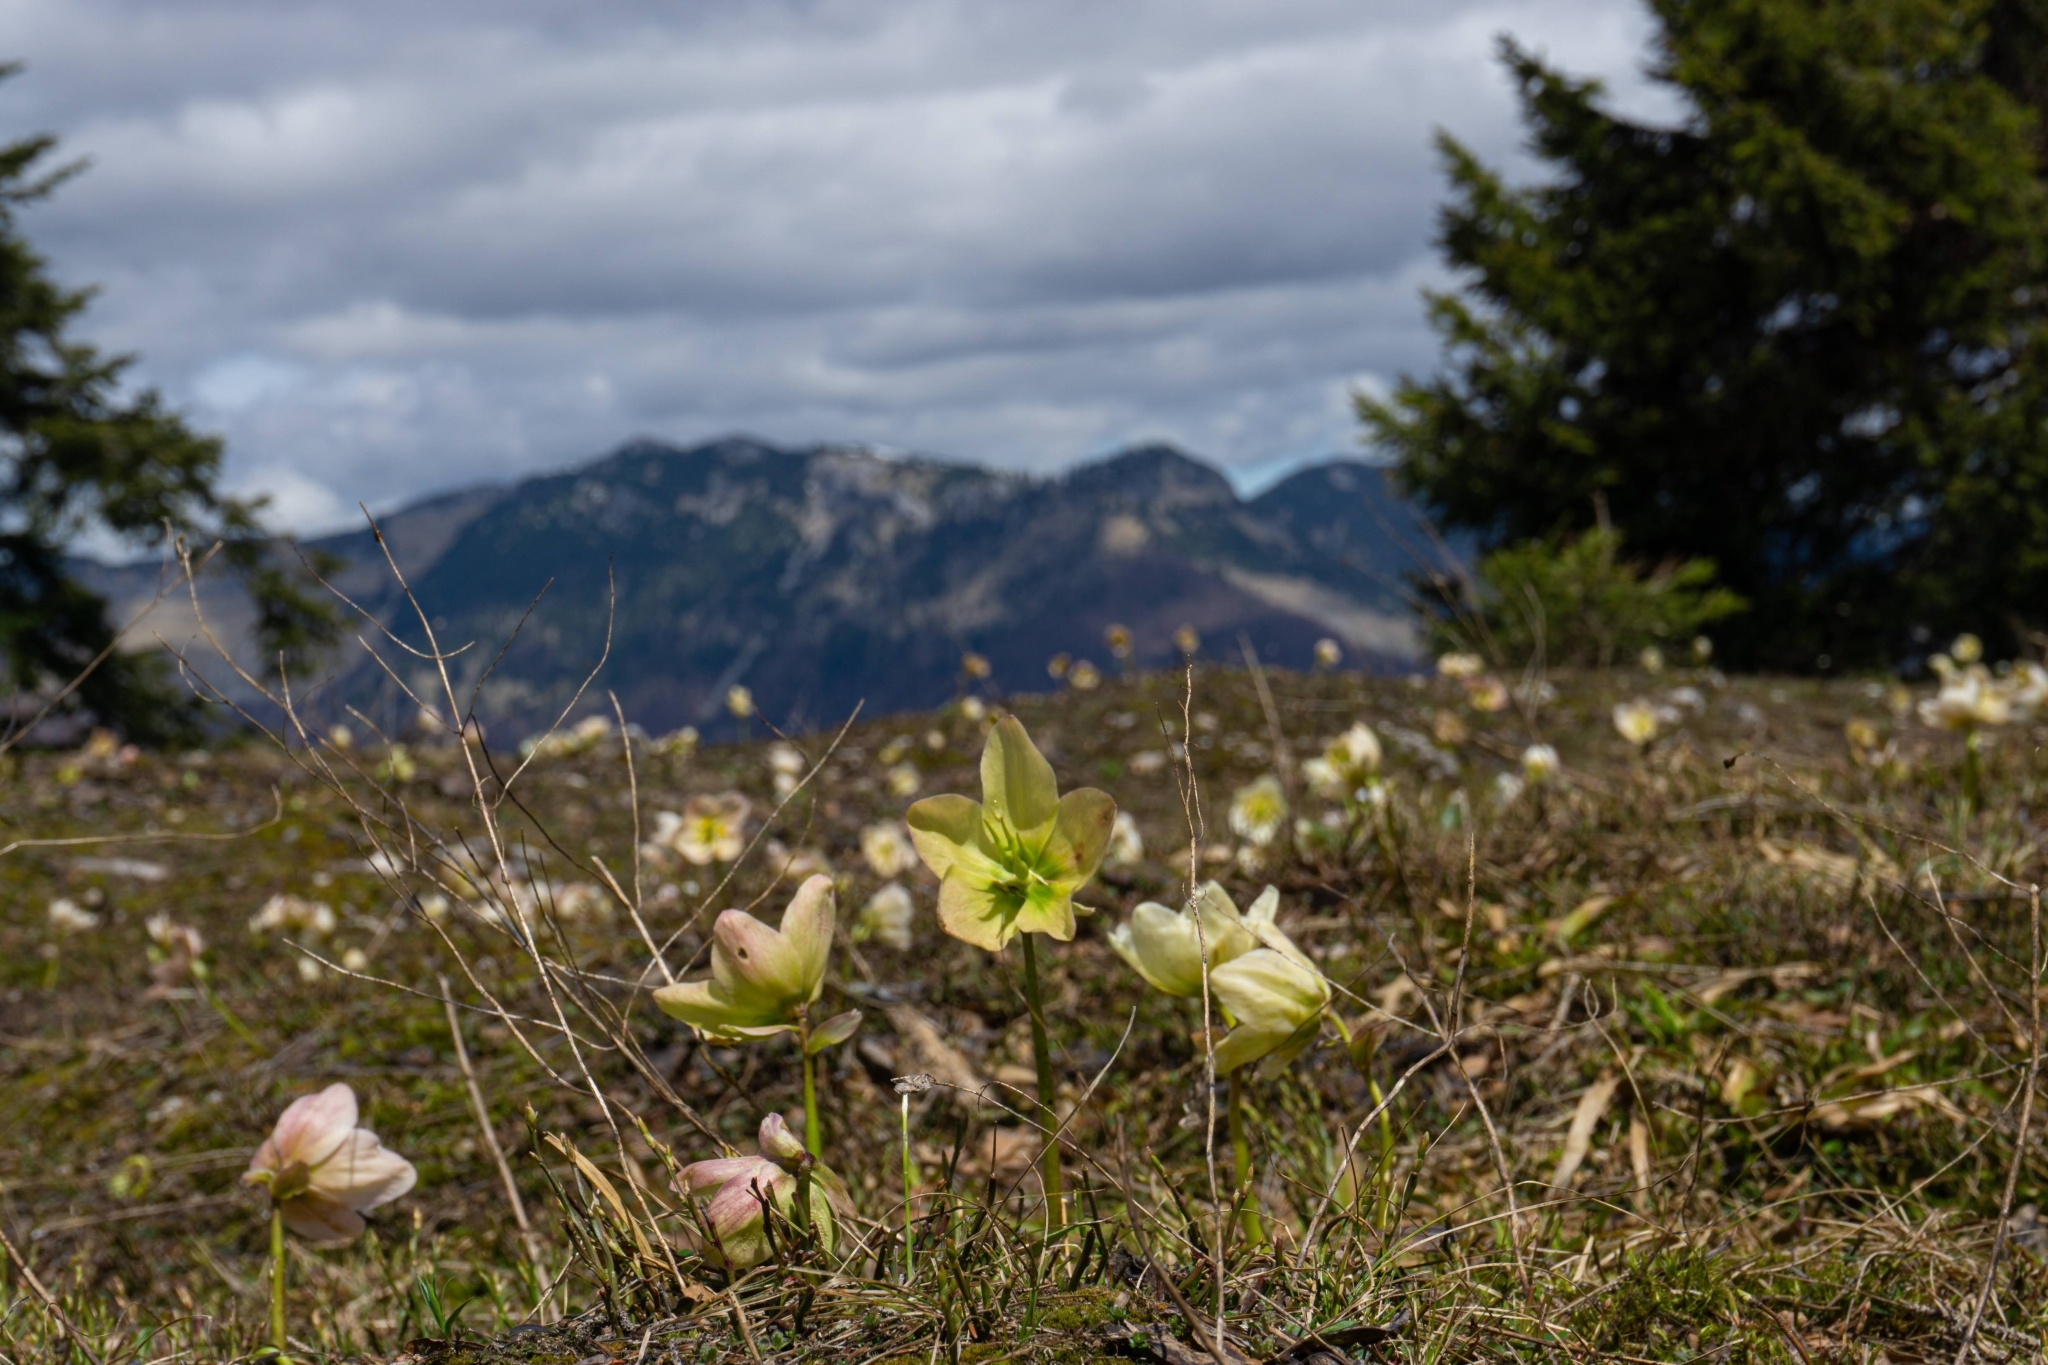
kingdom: Plantae
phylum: Tracheophyta
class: Magnoliopsida
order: Ranunculales
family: Ranunculaceae
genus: Helleborus
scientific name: Helleborus niger
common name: Black hellebore
